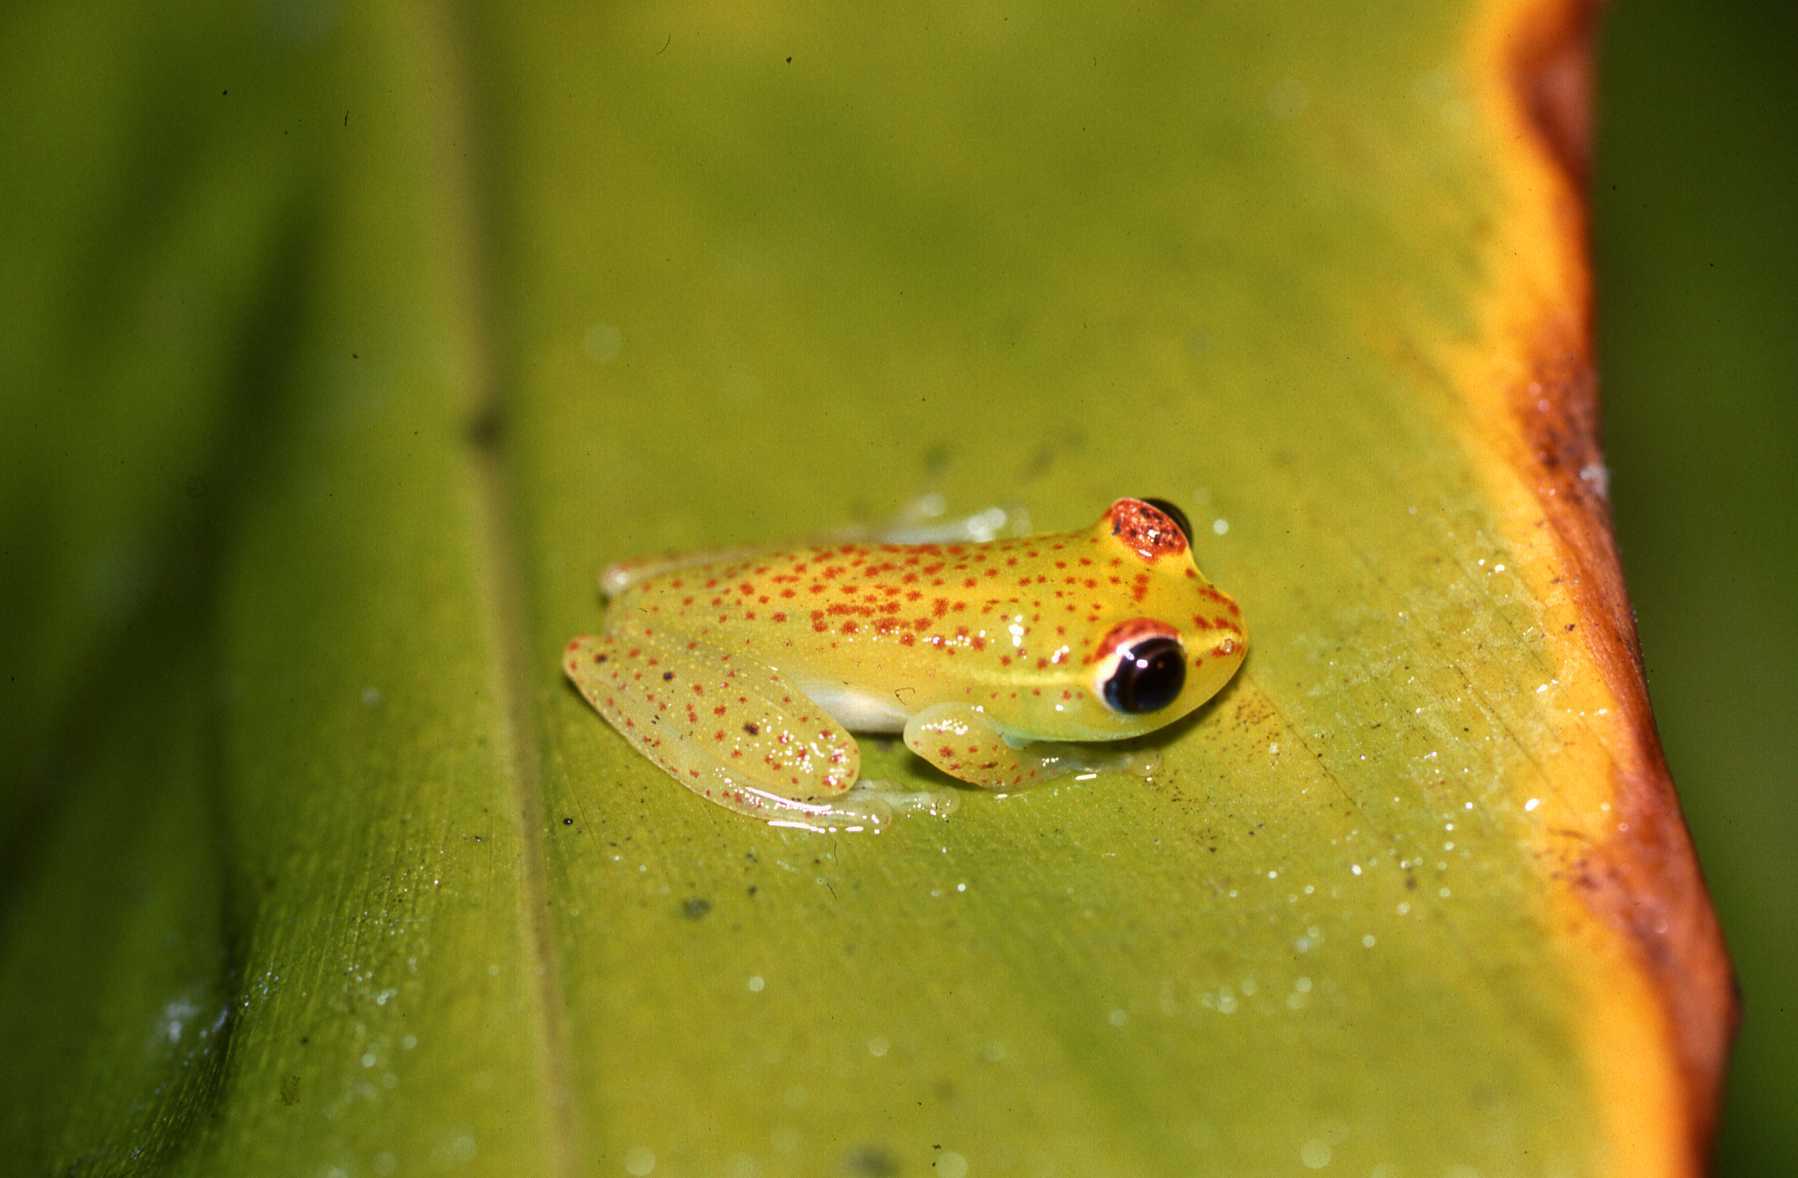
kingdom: Animalia
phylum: Chordata
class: Amphibia
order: Anura
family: Mantellidae
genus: Boophis
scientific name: Boophis tasymena
